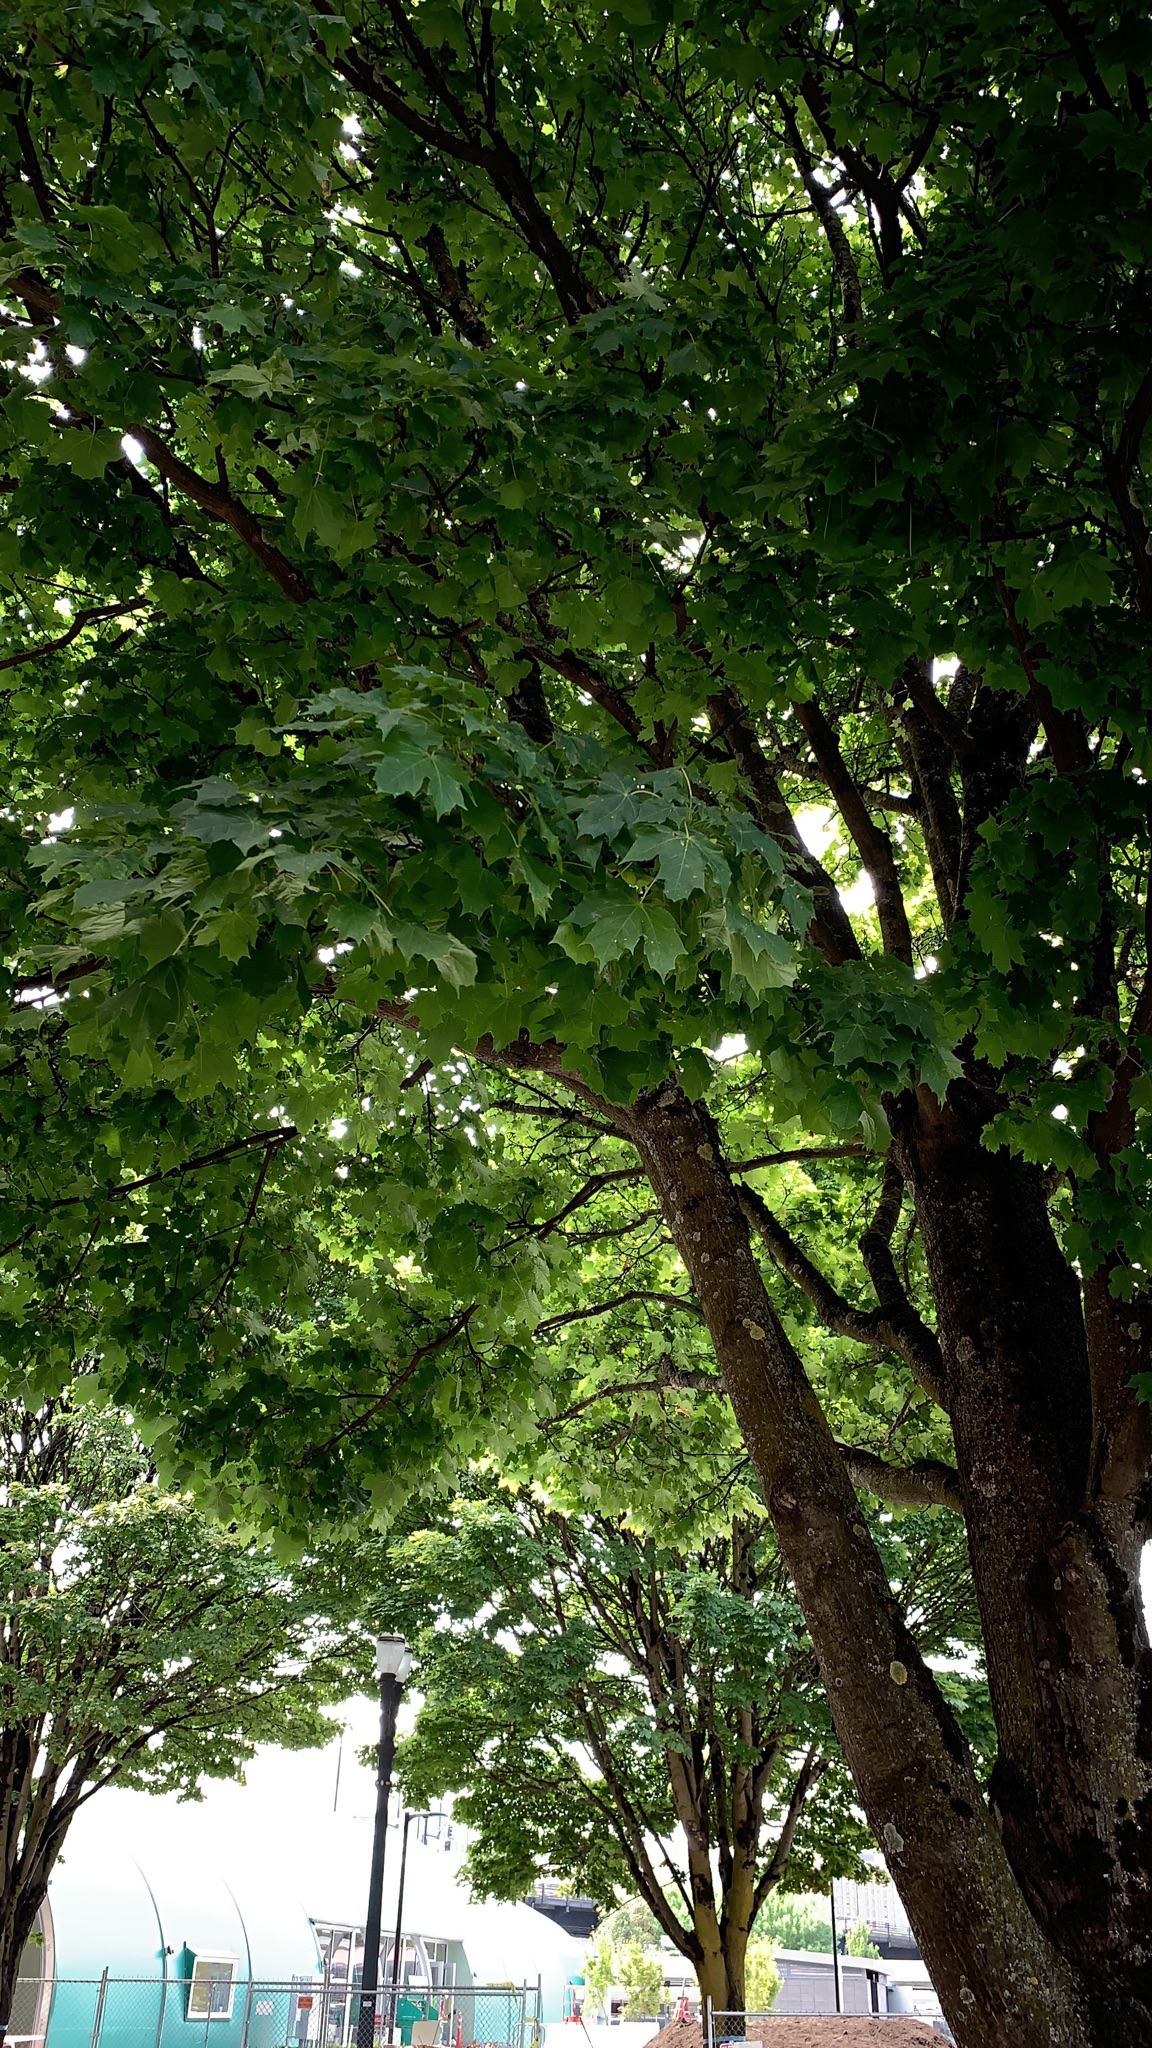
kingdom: Plantae
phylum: Tracheophyta
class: Magnoliopsida
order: Sapindales
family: Sapindaceae
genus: Acer
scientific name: Acer platanoides
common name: Norway maple
